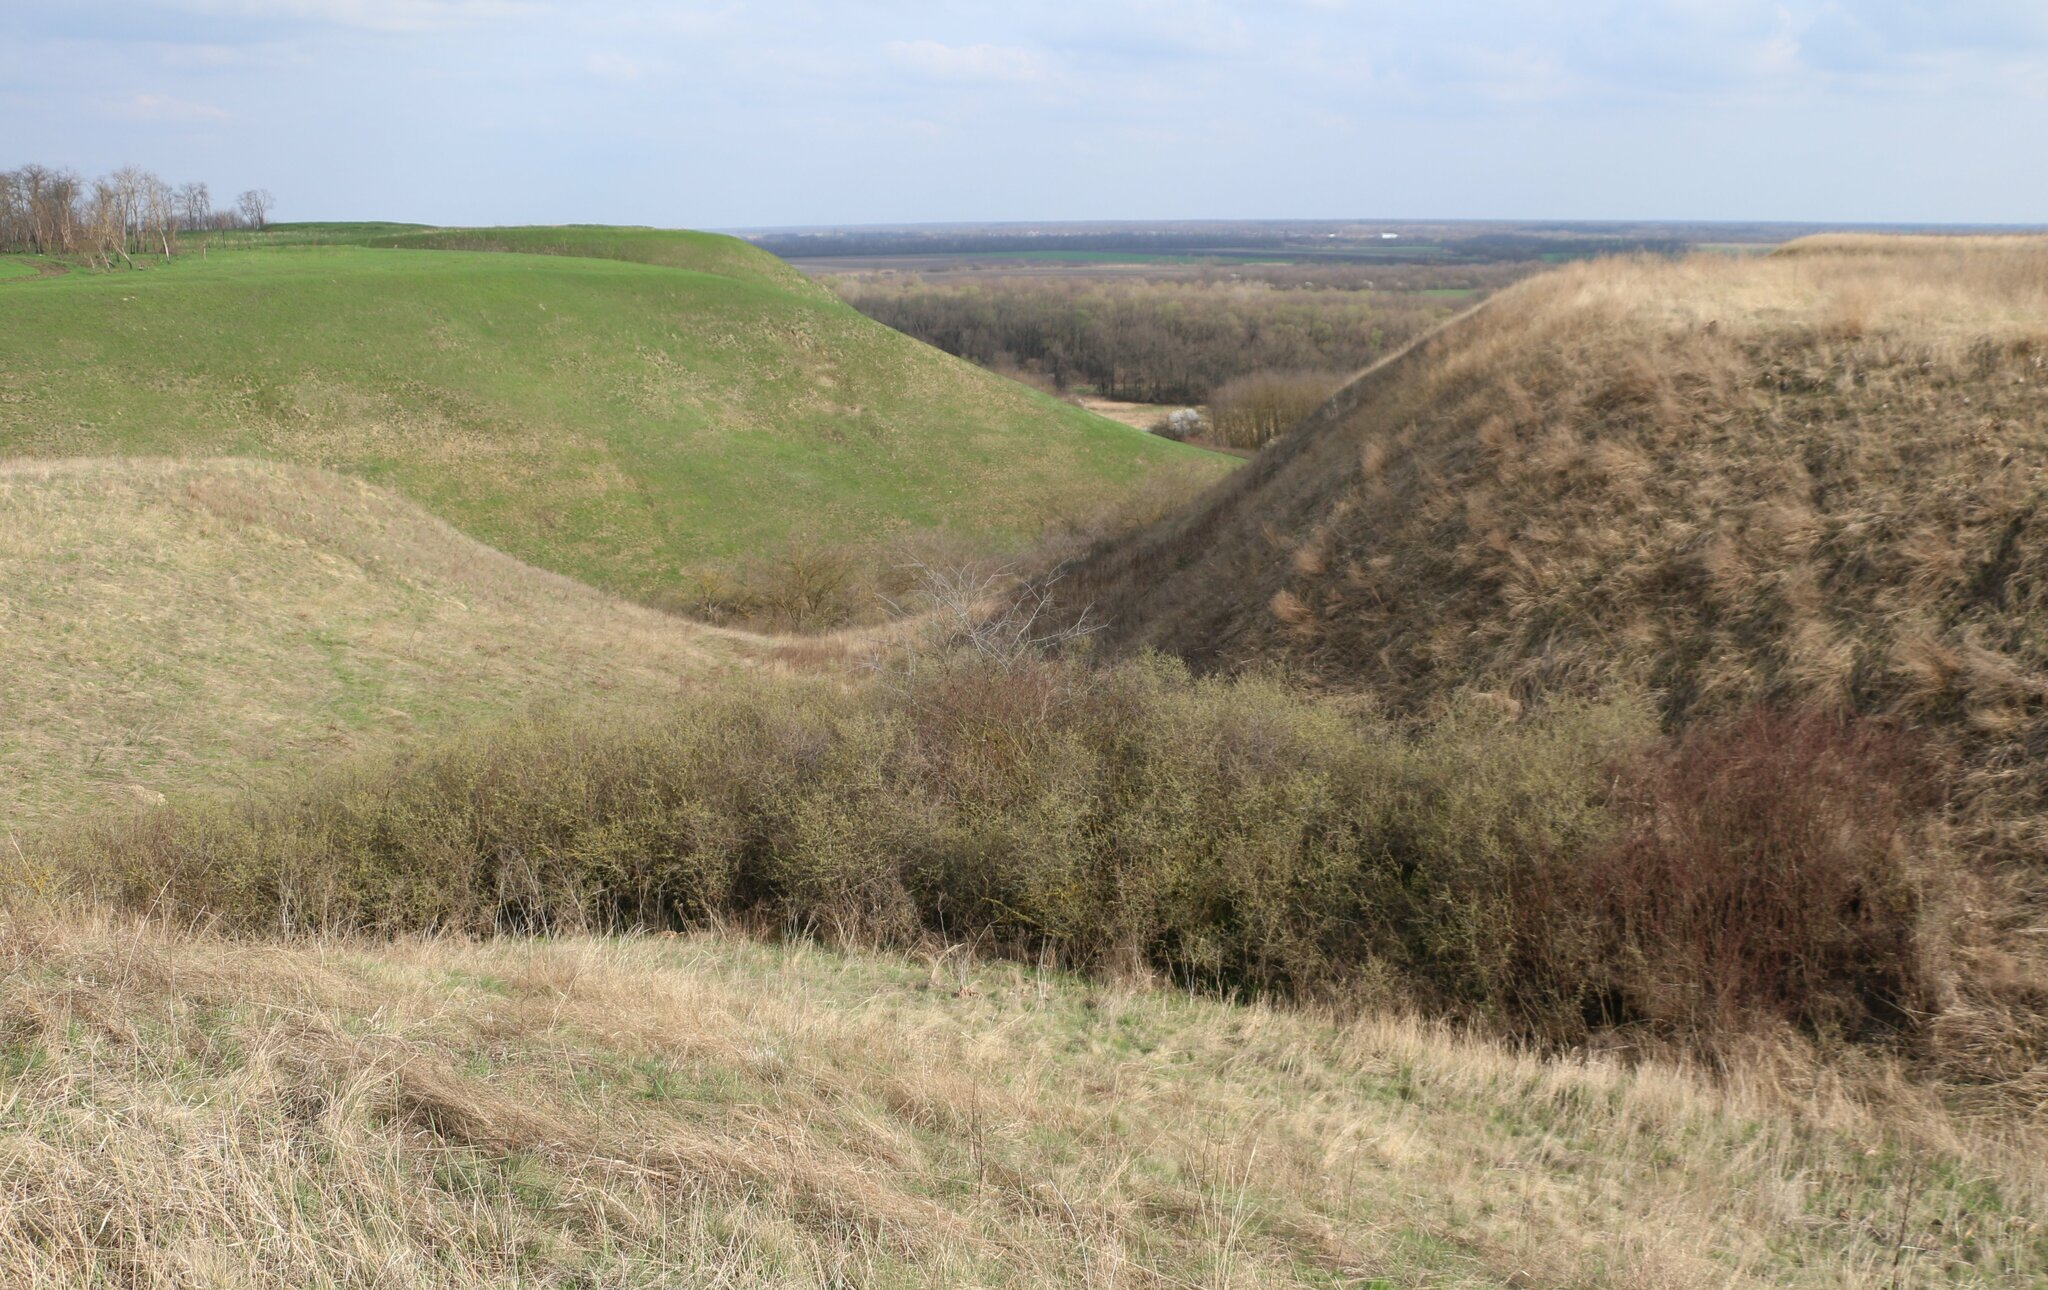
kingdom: Plantae
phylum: Tracheophyta
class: Magnoliopsida
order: Rosales
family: Rosaceae
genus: Prunus
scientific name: Prunus spinosa
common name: Blackthorn
